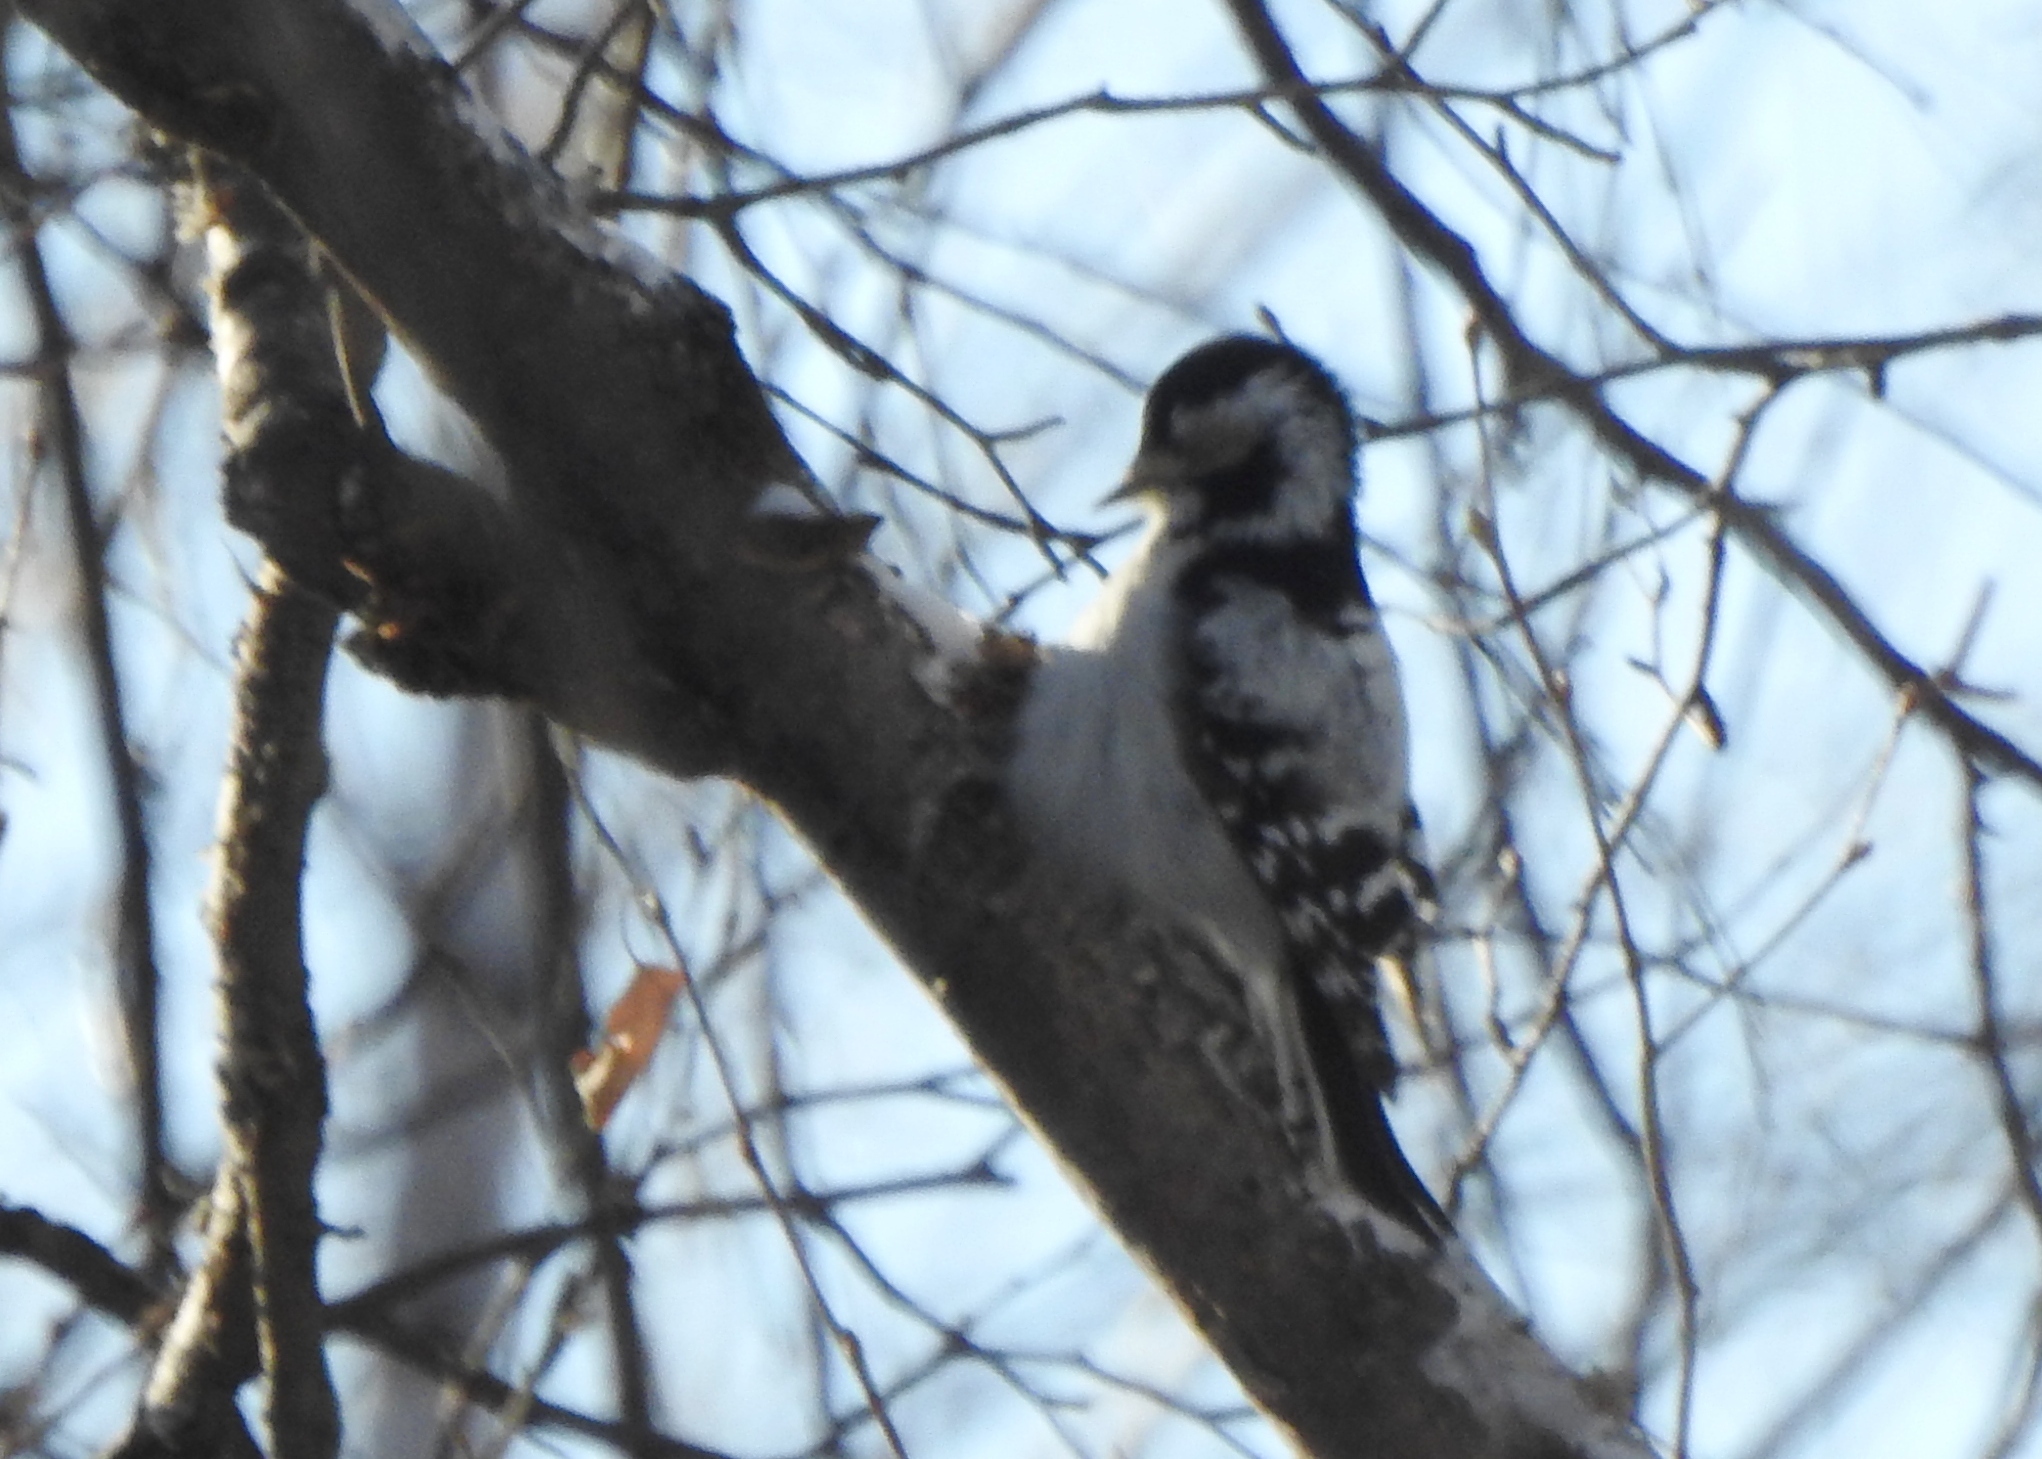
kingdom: Animalia
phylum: Chordata
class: Aves
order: Piciformes
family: Picidae
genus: Dryobates
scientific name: Dryobates minor
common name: Lesser spotted woodpecker
